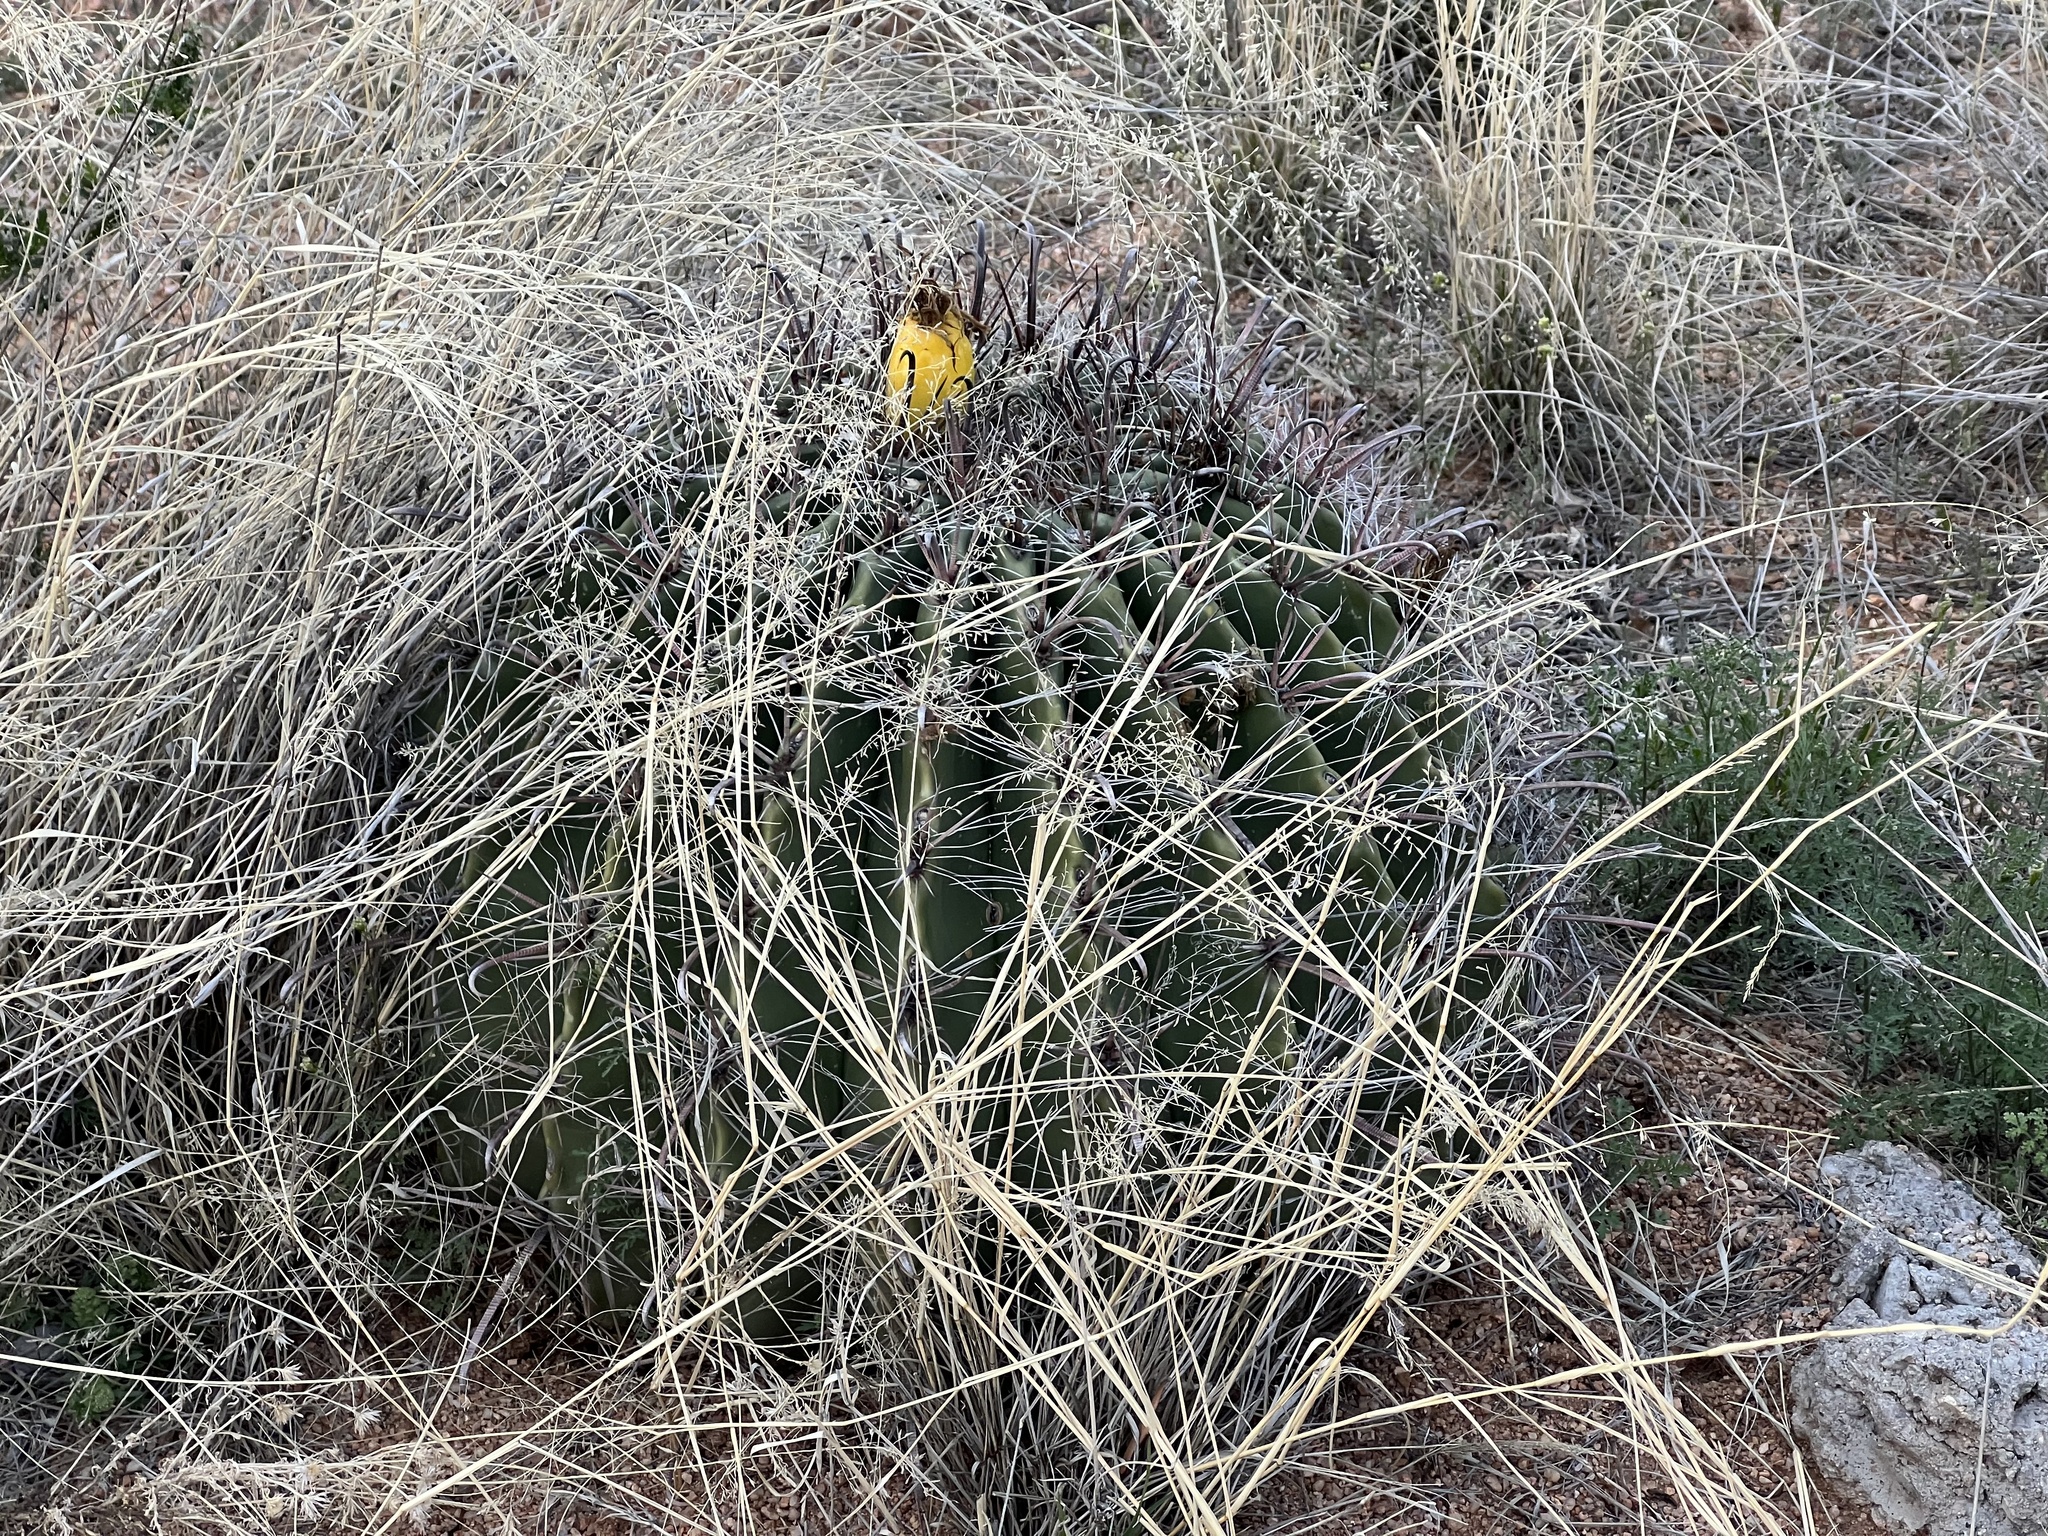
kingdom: Plantae
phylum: Tracheophyta
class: Magnoliopsida
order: Caryophyllales
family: Cactaceae
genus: Ferocactus
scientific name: Ferocactus wislizeni
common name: Candy barrel cactus
